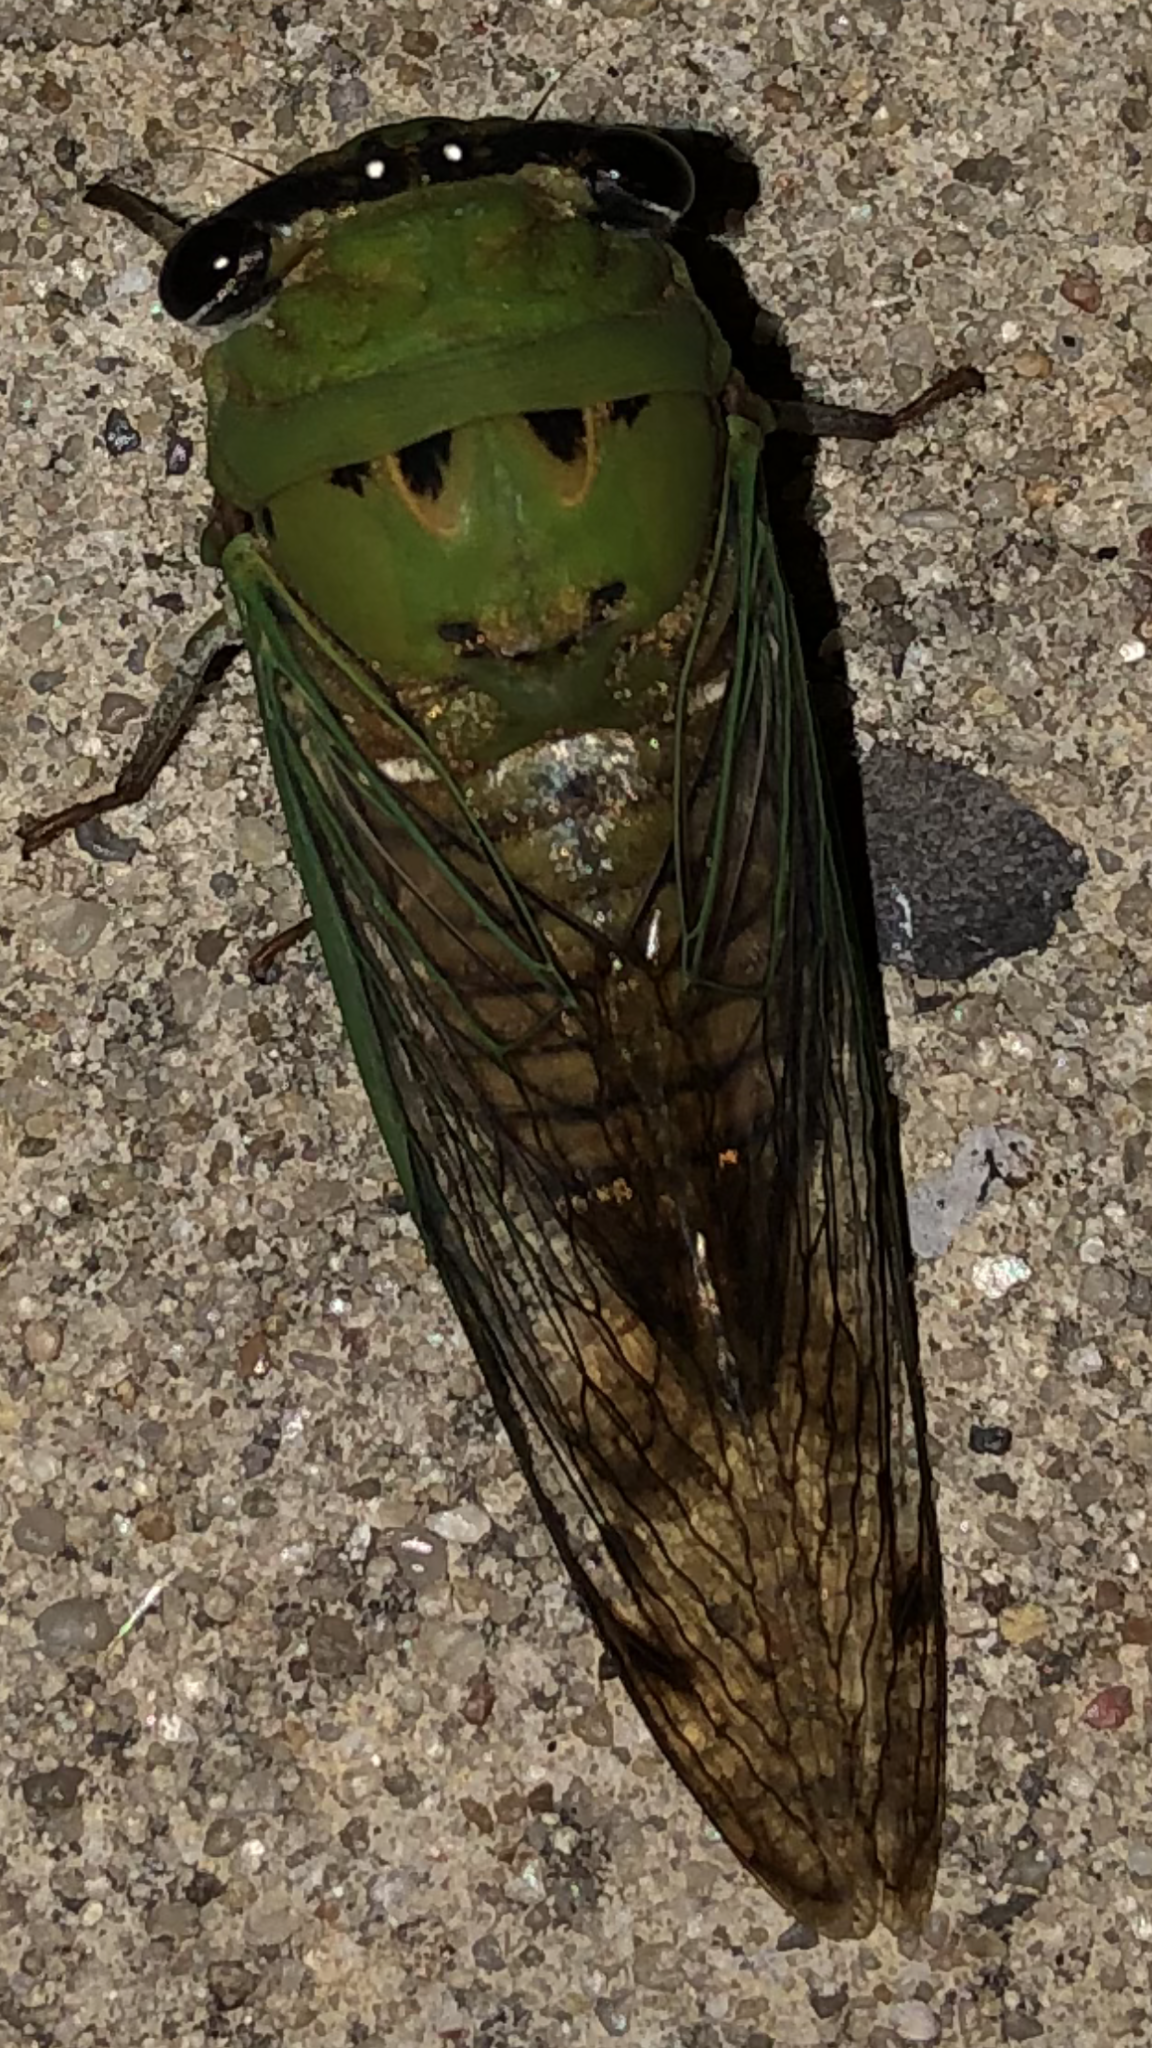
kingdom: Animalia
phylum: Arthropoda
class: Insecta
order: Hemiptera
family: Cicadidae
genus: Neotibicen
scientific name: Neotibicen superbus
